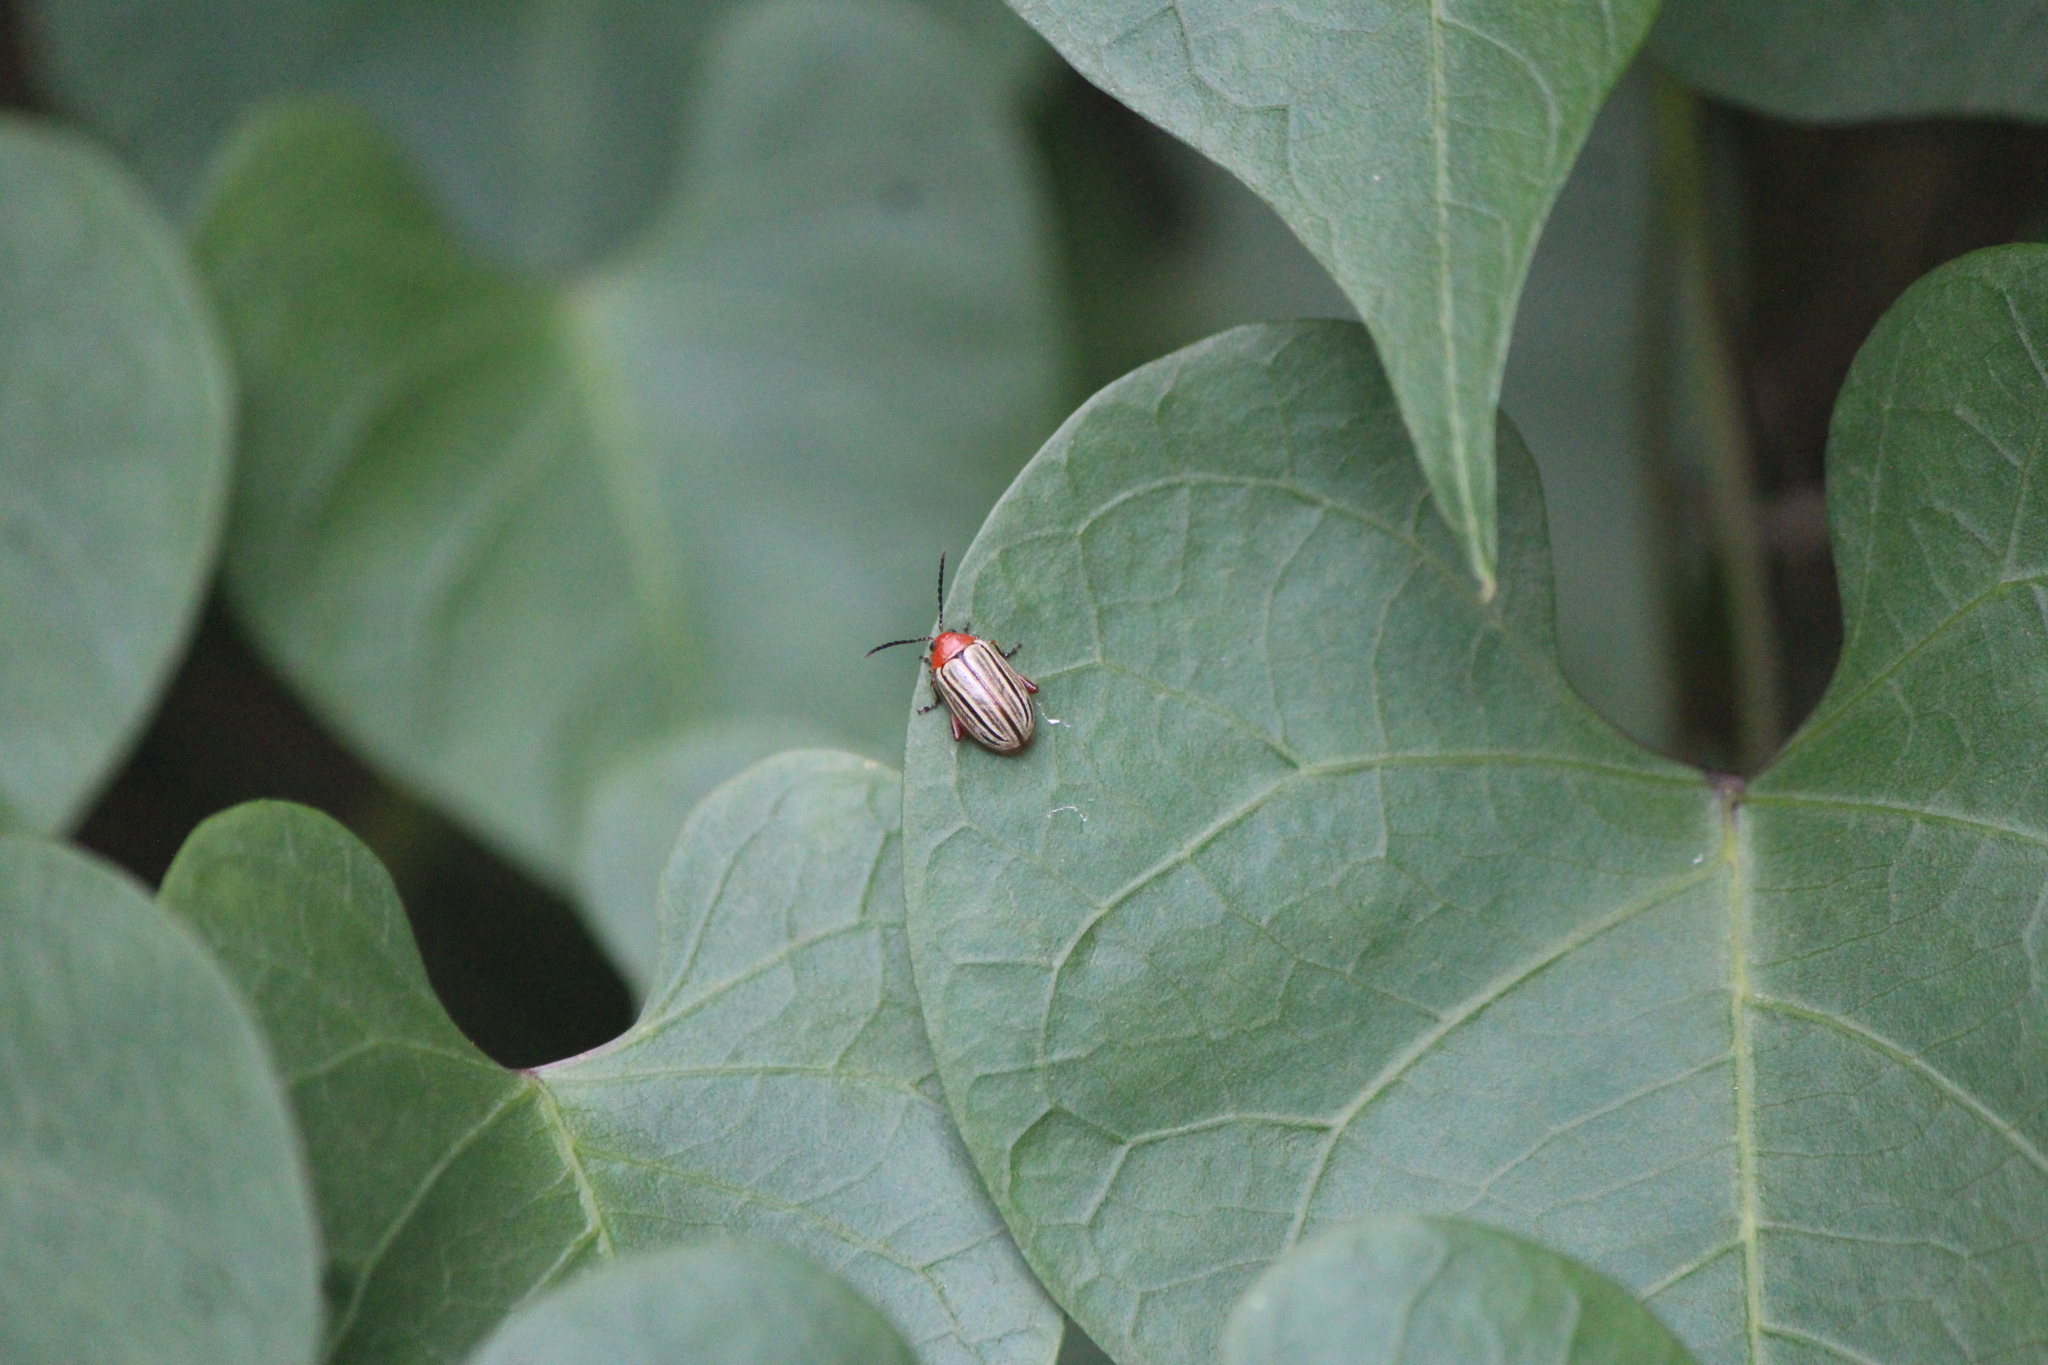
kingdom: Animalia
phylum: Arthropoda
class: Insecta
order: Coleoptera
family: Chrysomelidae
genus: Disonycha
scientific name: Disonycha
